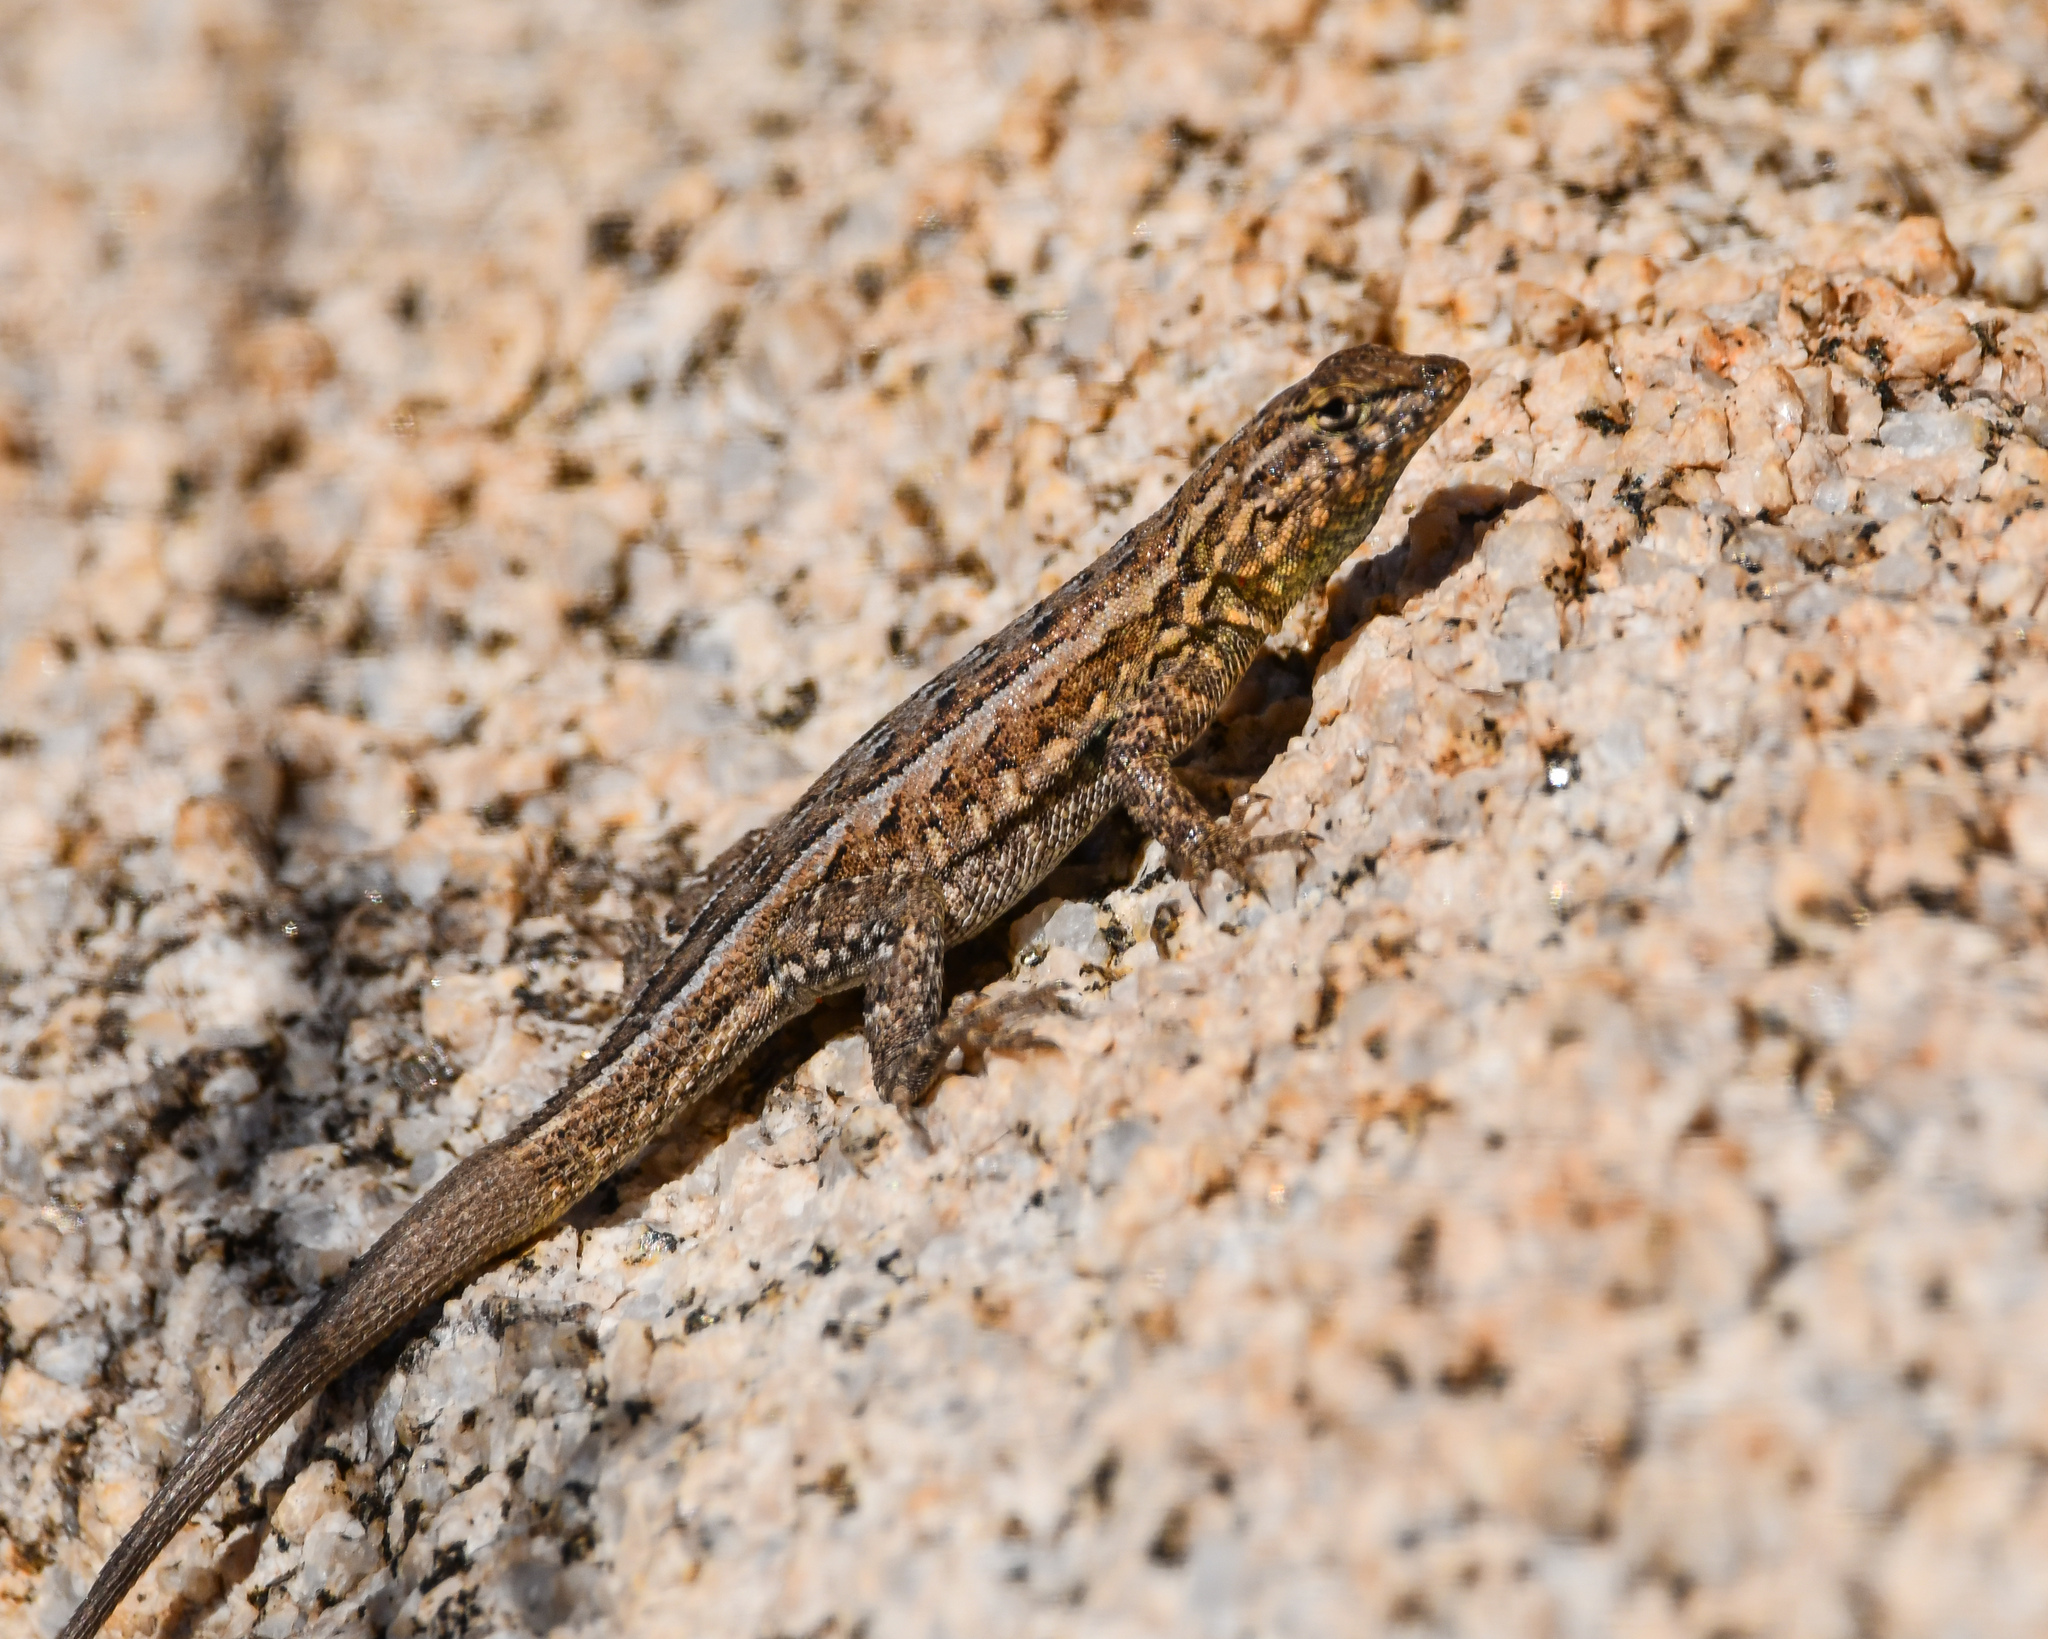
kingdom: Animalia
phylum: Chordata
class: Squamata
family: Phrynosomatidae
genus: Uta
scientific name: Uta stansburiana
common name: Side-blotched lizard
